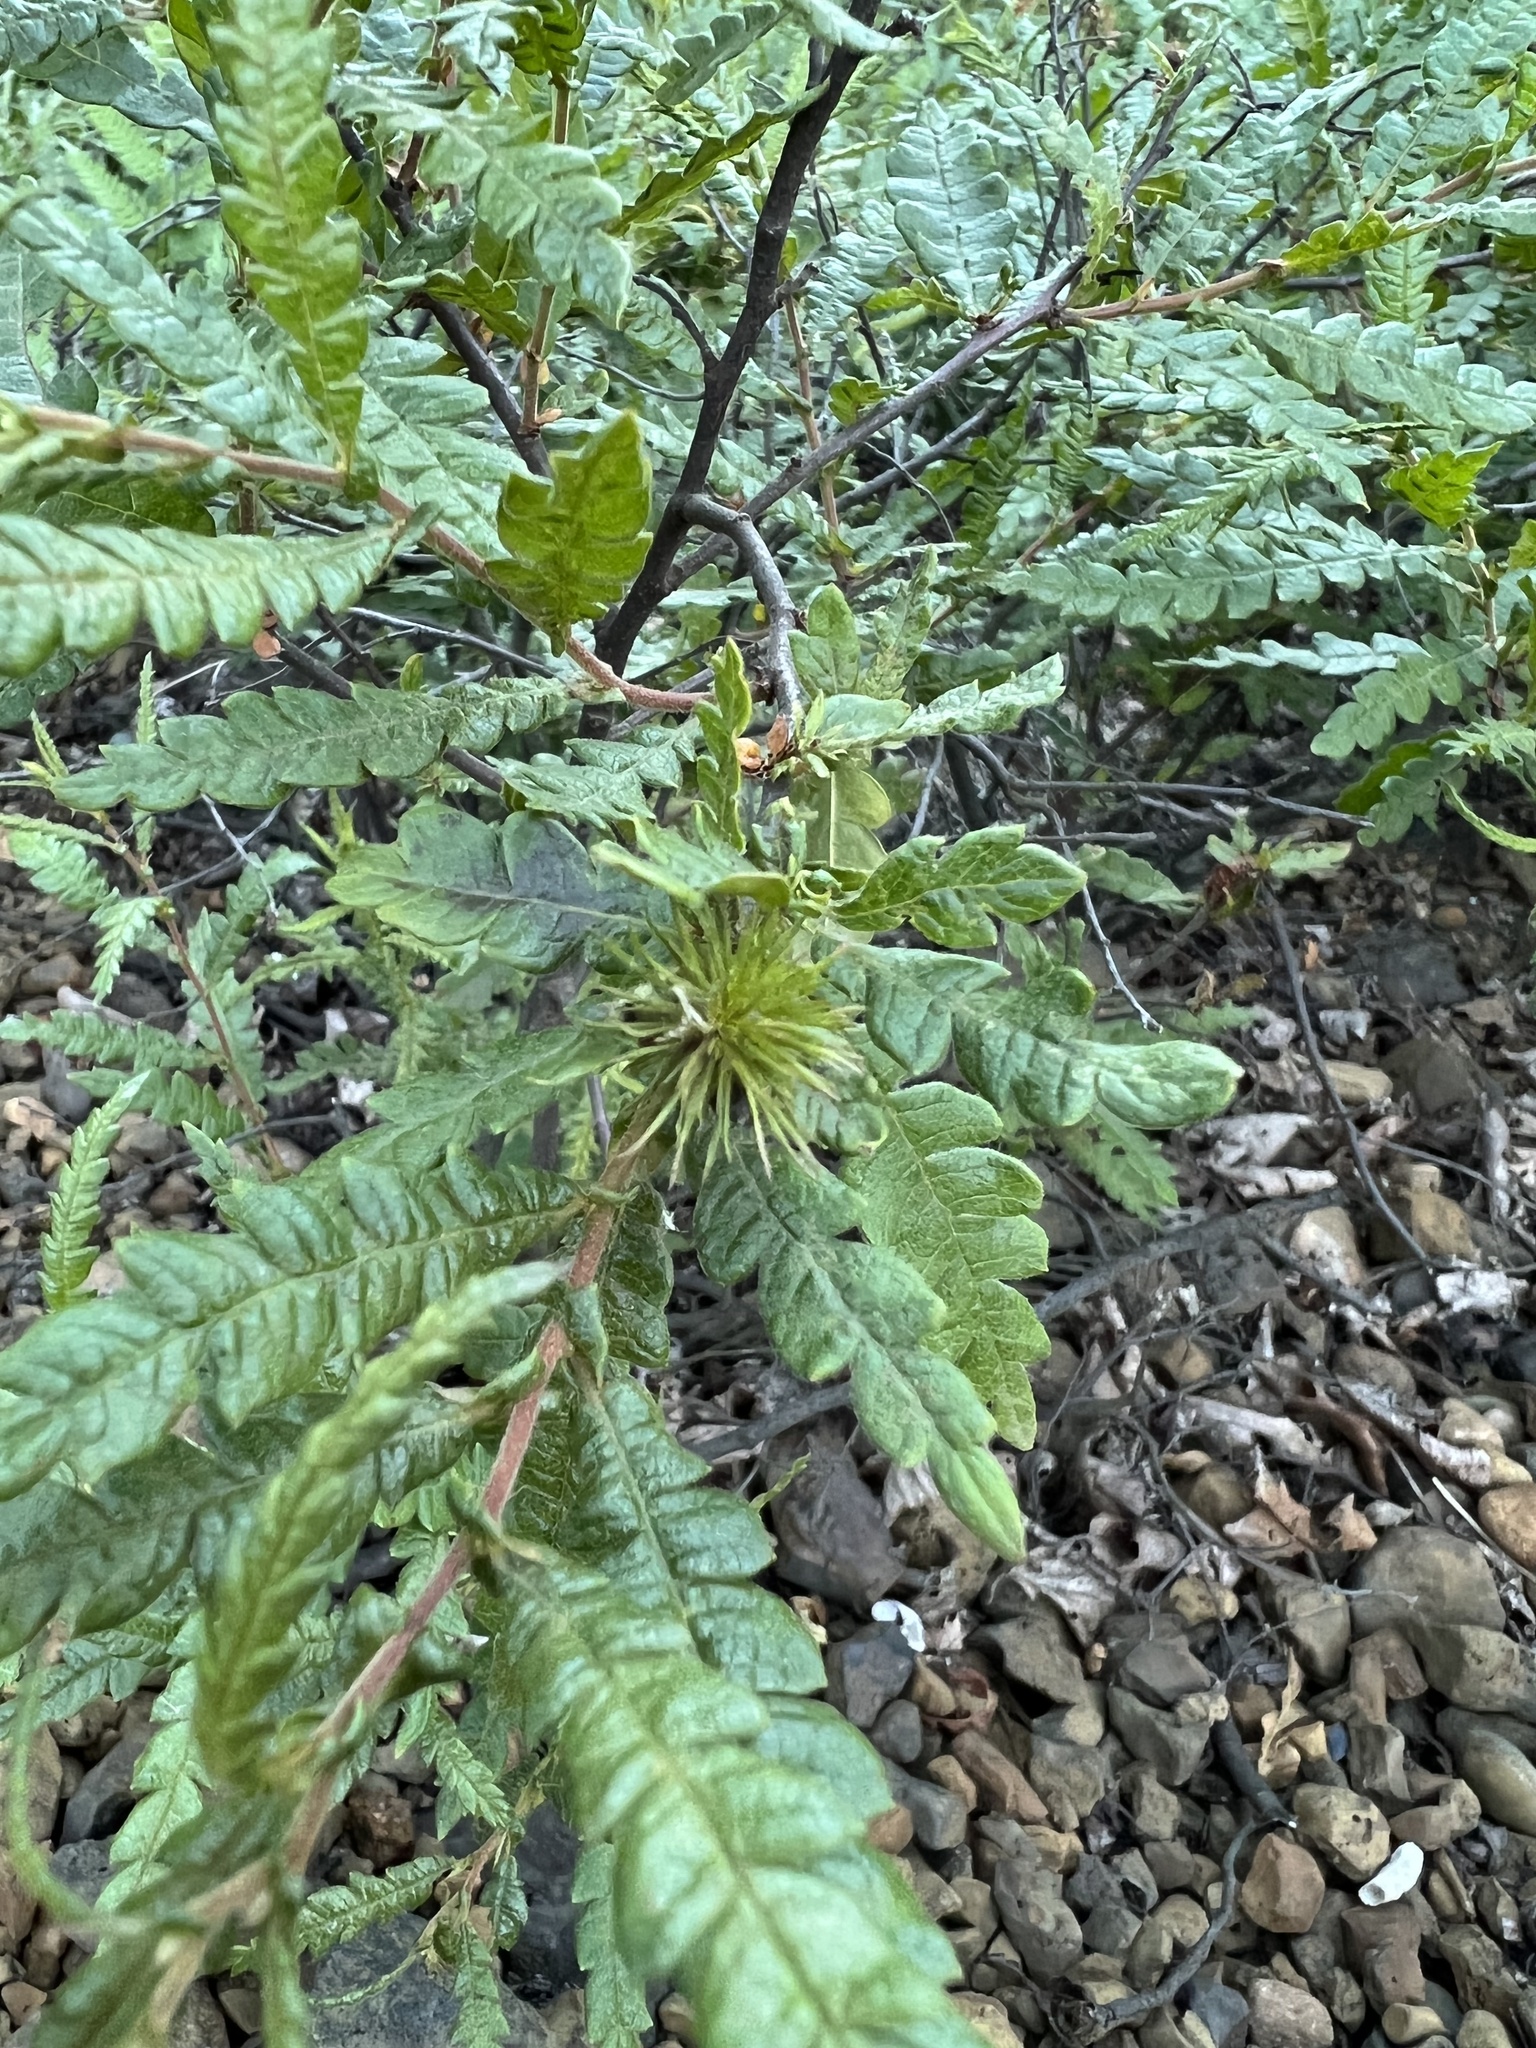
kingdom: Plantae
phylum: Tracheophyta
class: Magnoliopsida
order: Fagales
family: Myricaceae
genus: Comptonia
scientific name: Comptonia peregrina
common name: Sweet-fern
